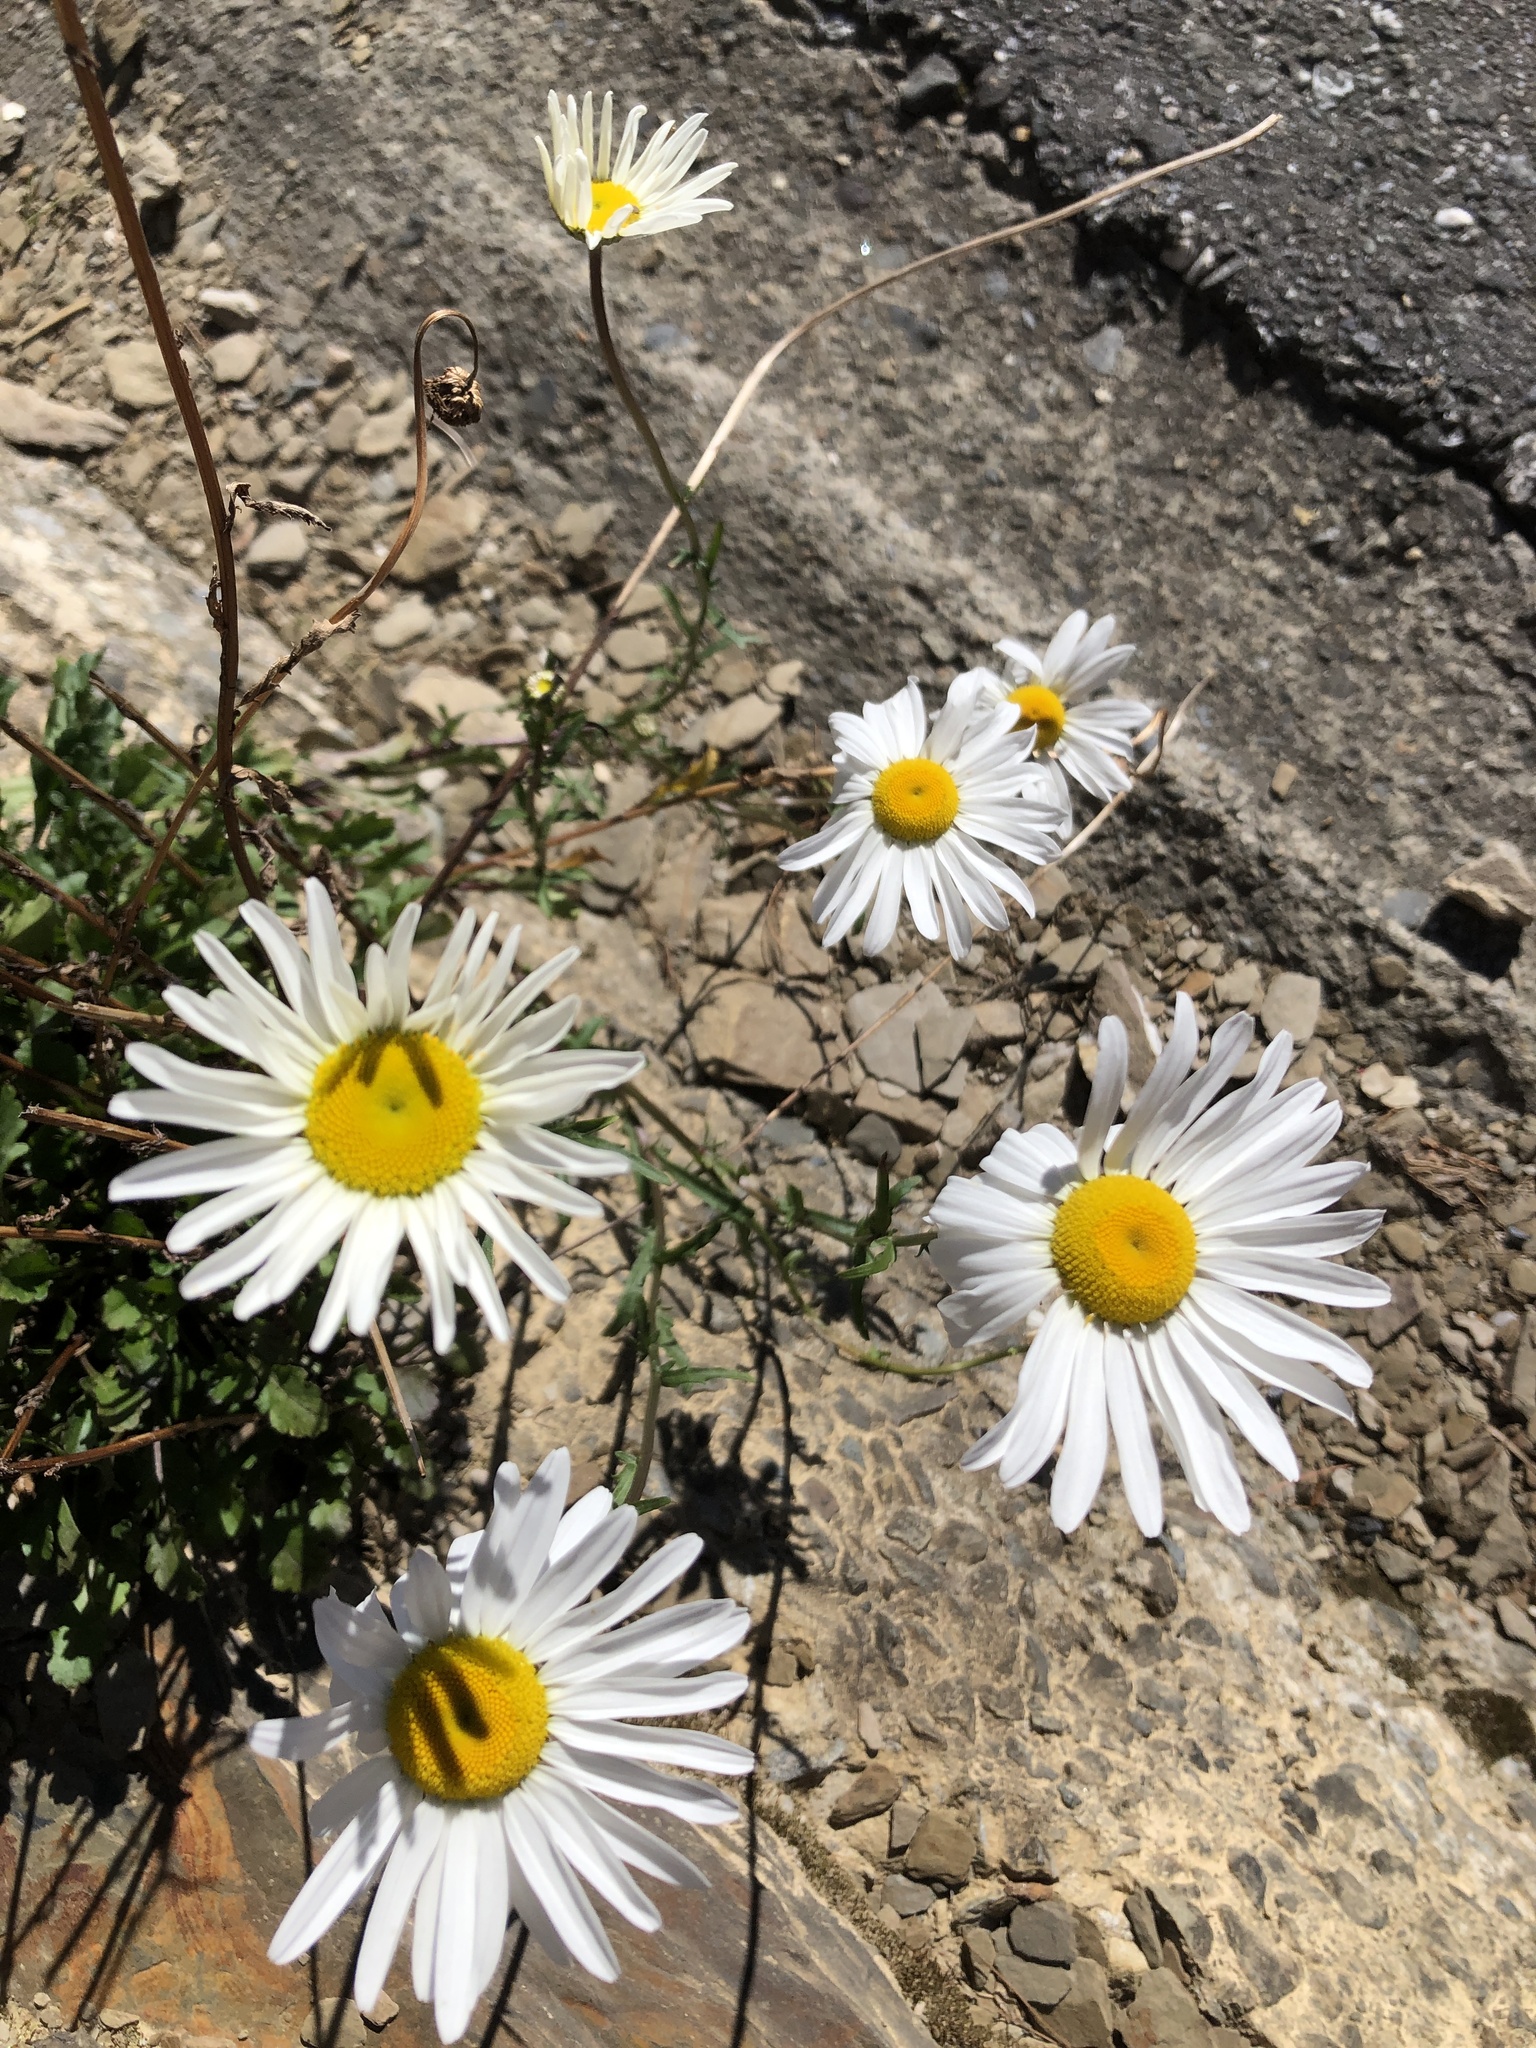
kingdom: Plantae
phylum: Tracheophyta
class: Magnoliopsida
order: Asterales
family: Asteraceae
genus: Leucanthemum
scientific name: Leucanthemum vulgare
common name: Oxeye daisy
